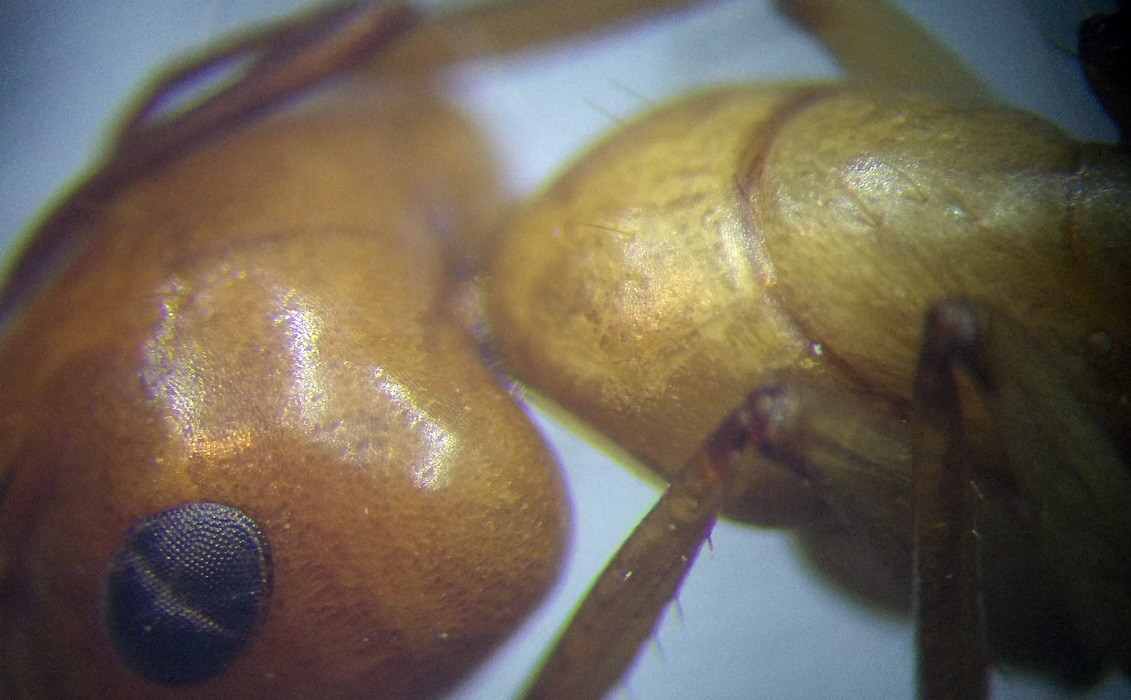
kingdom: Animalia
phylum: Arthropoda
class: Insecta
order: Hymenoptera
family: Formicidae
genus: Camponotus
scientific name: Camponotus turkestanus
